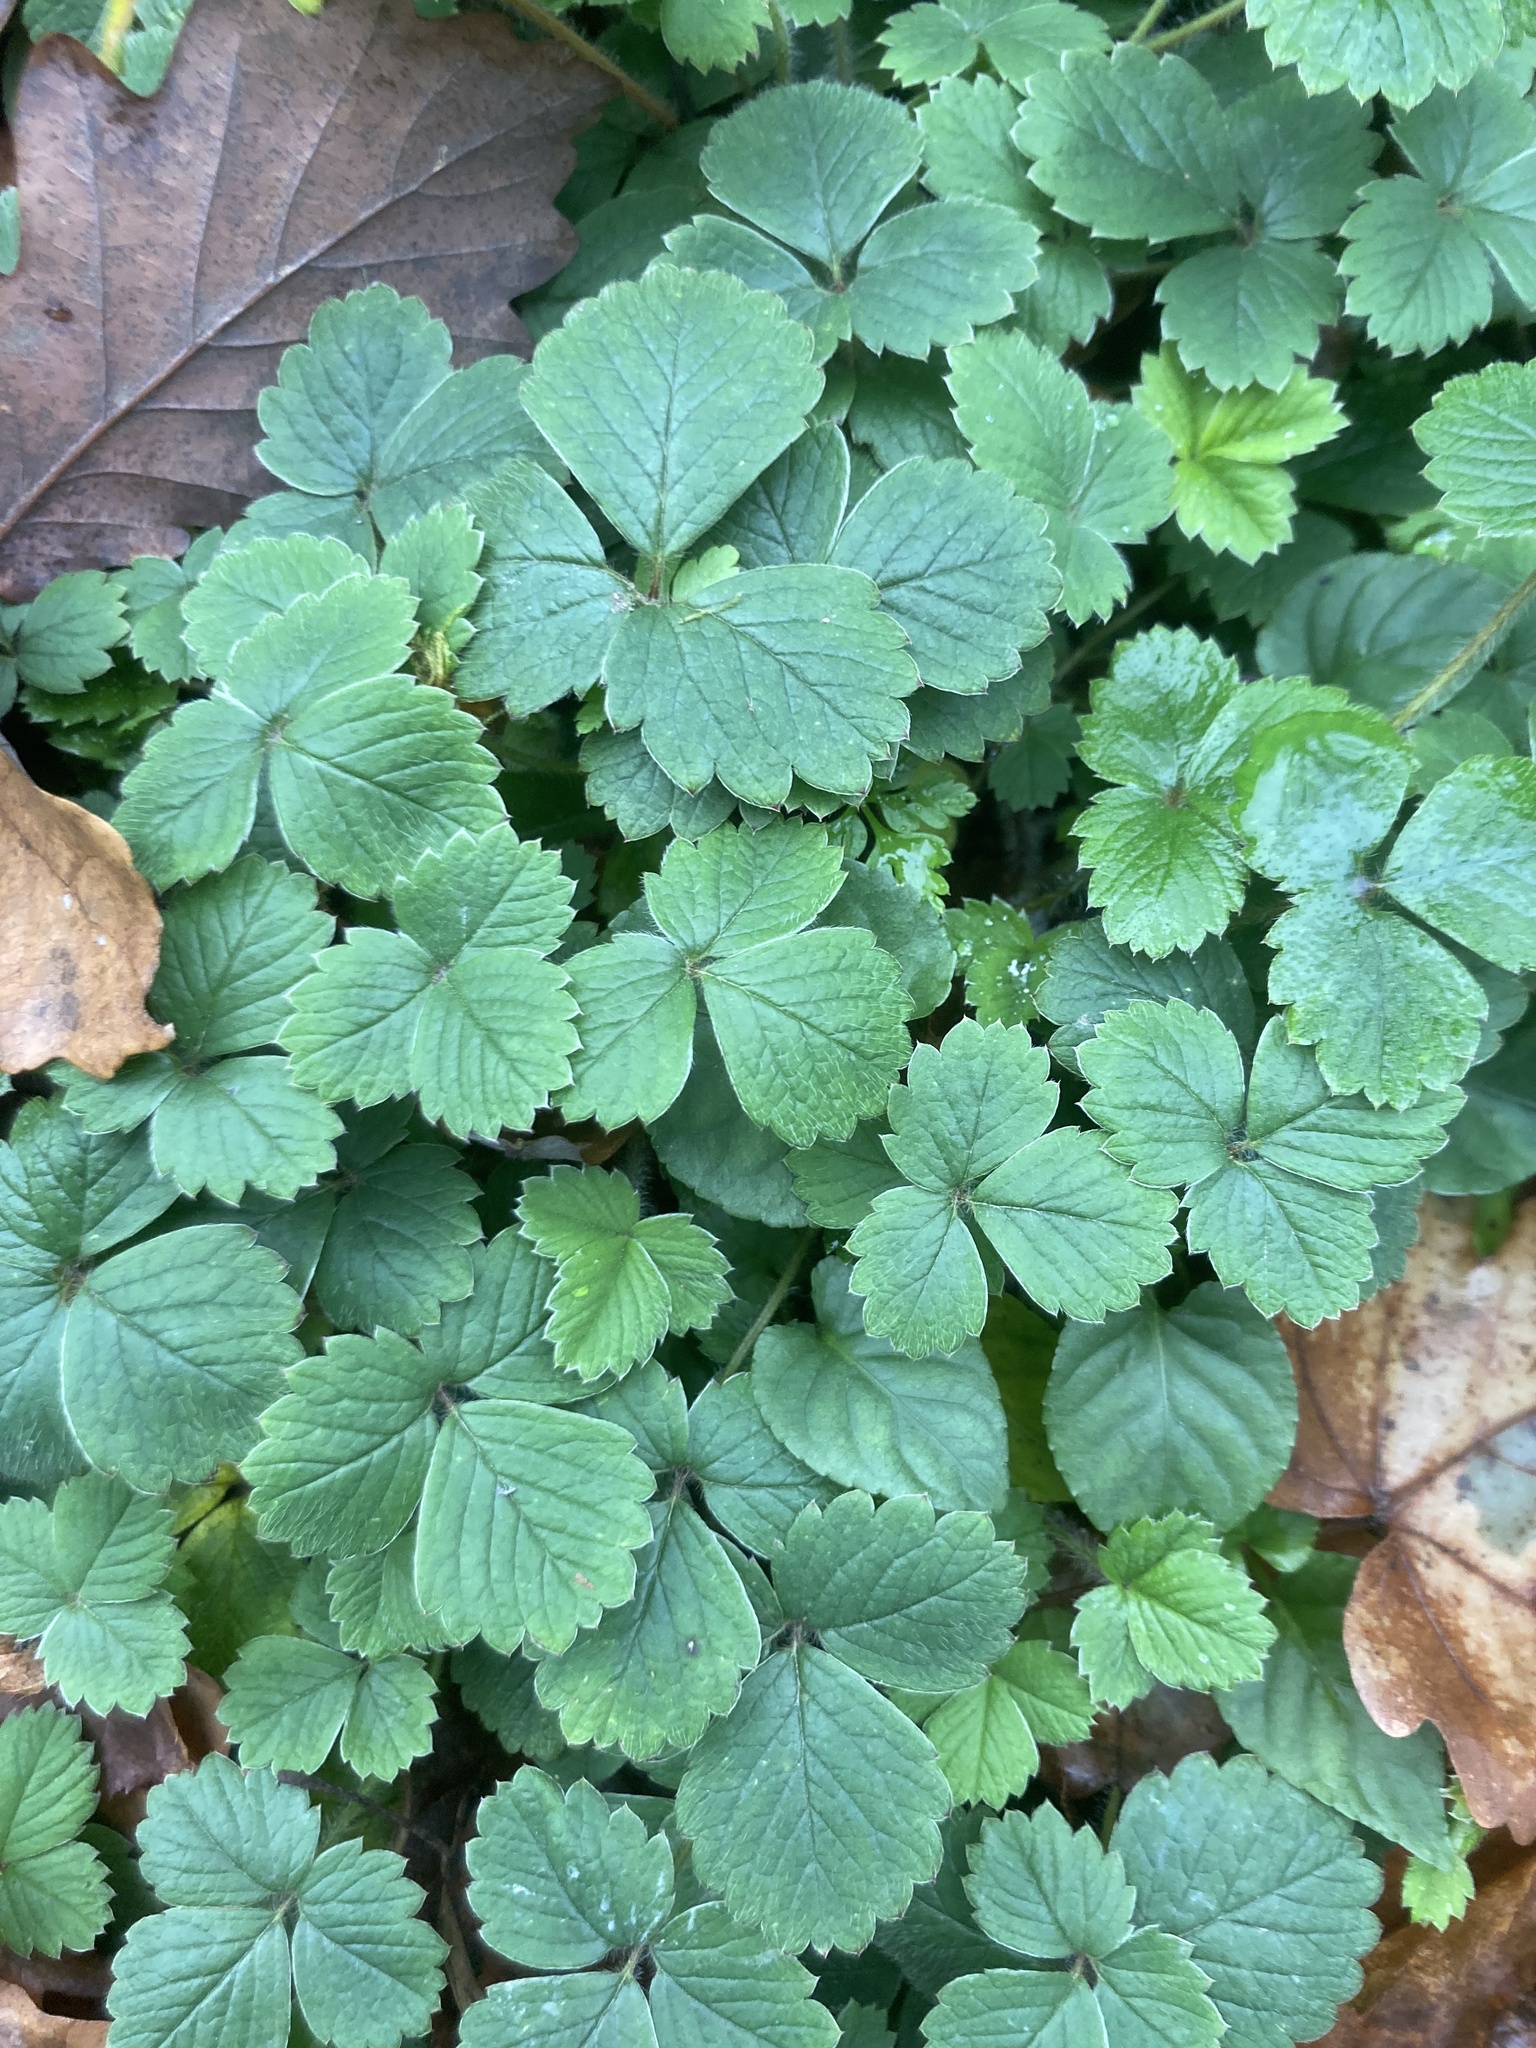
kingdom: Plantae
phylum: Tracheophyta
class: Magnoliopsida
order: Rosales
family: Rosaceae
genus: Potentilla
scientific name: Potentilla sterilis
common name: Barren strawberry
